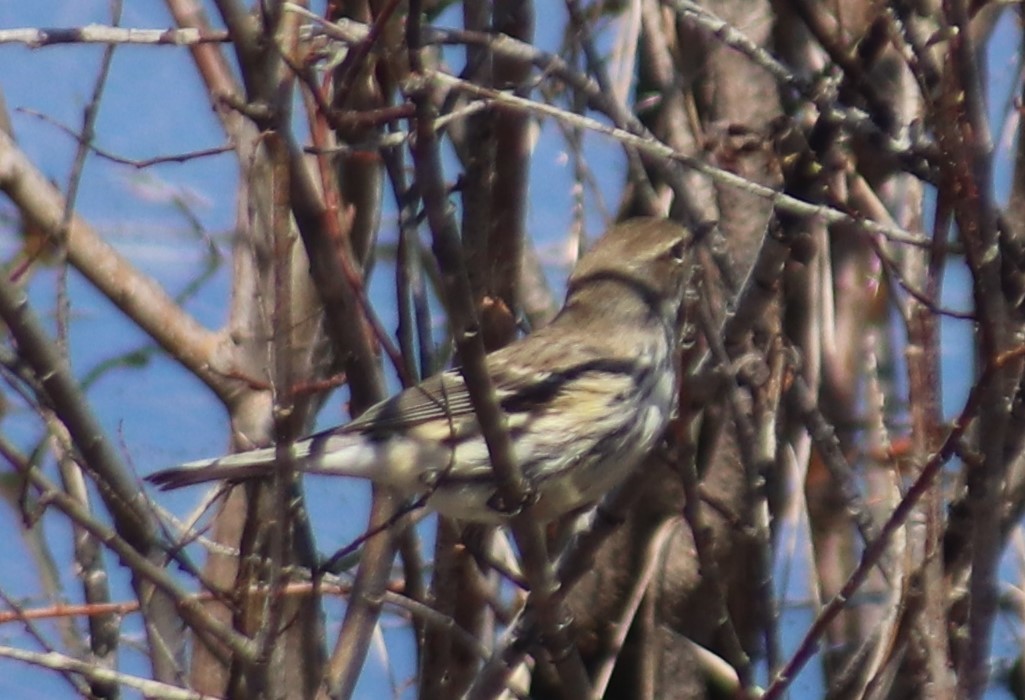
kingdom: Animalia
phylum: Chordata
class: Aves
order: Passeriformes
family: Parulidae
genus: Setophaga
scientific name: Setophaga coronata
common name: Myrtle warbler
